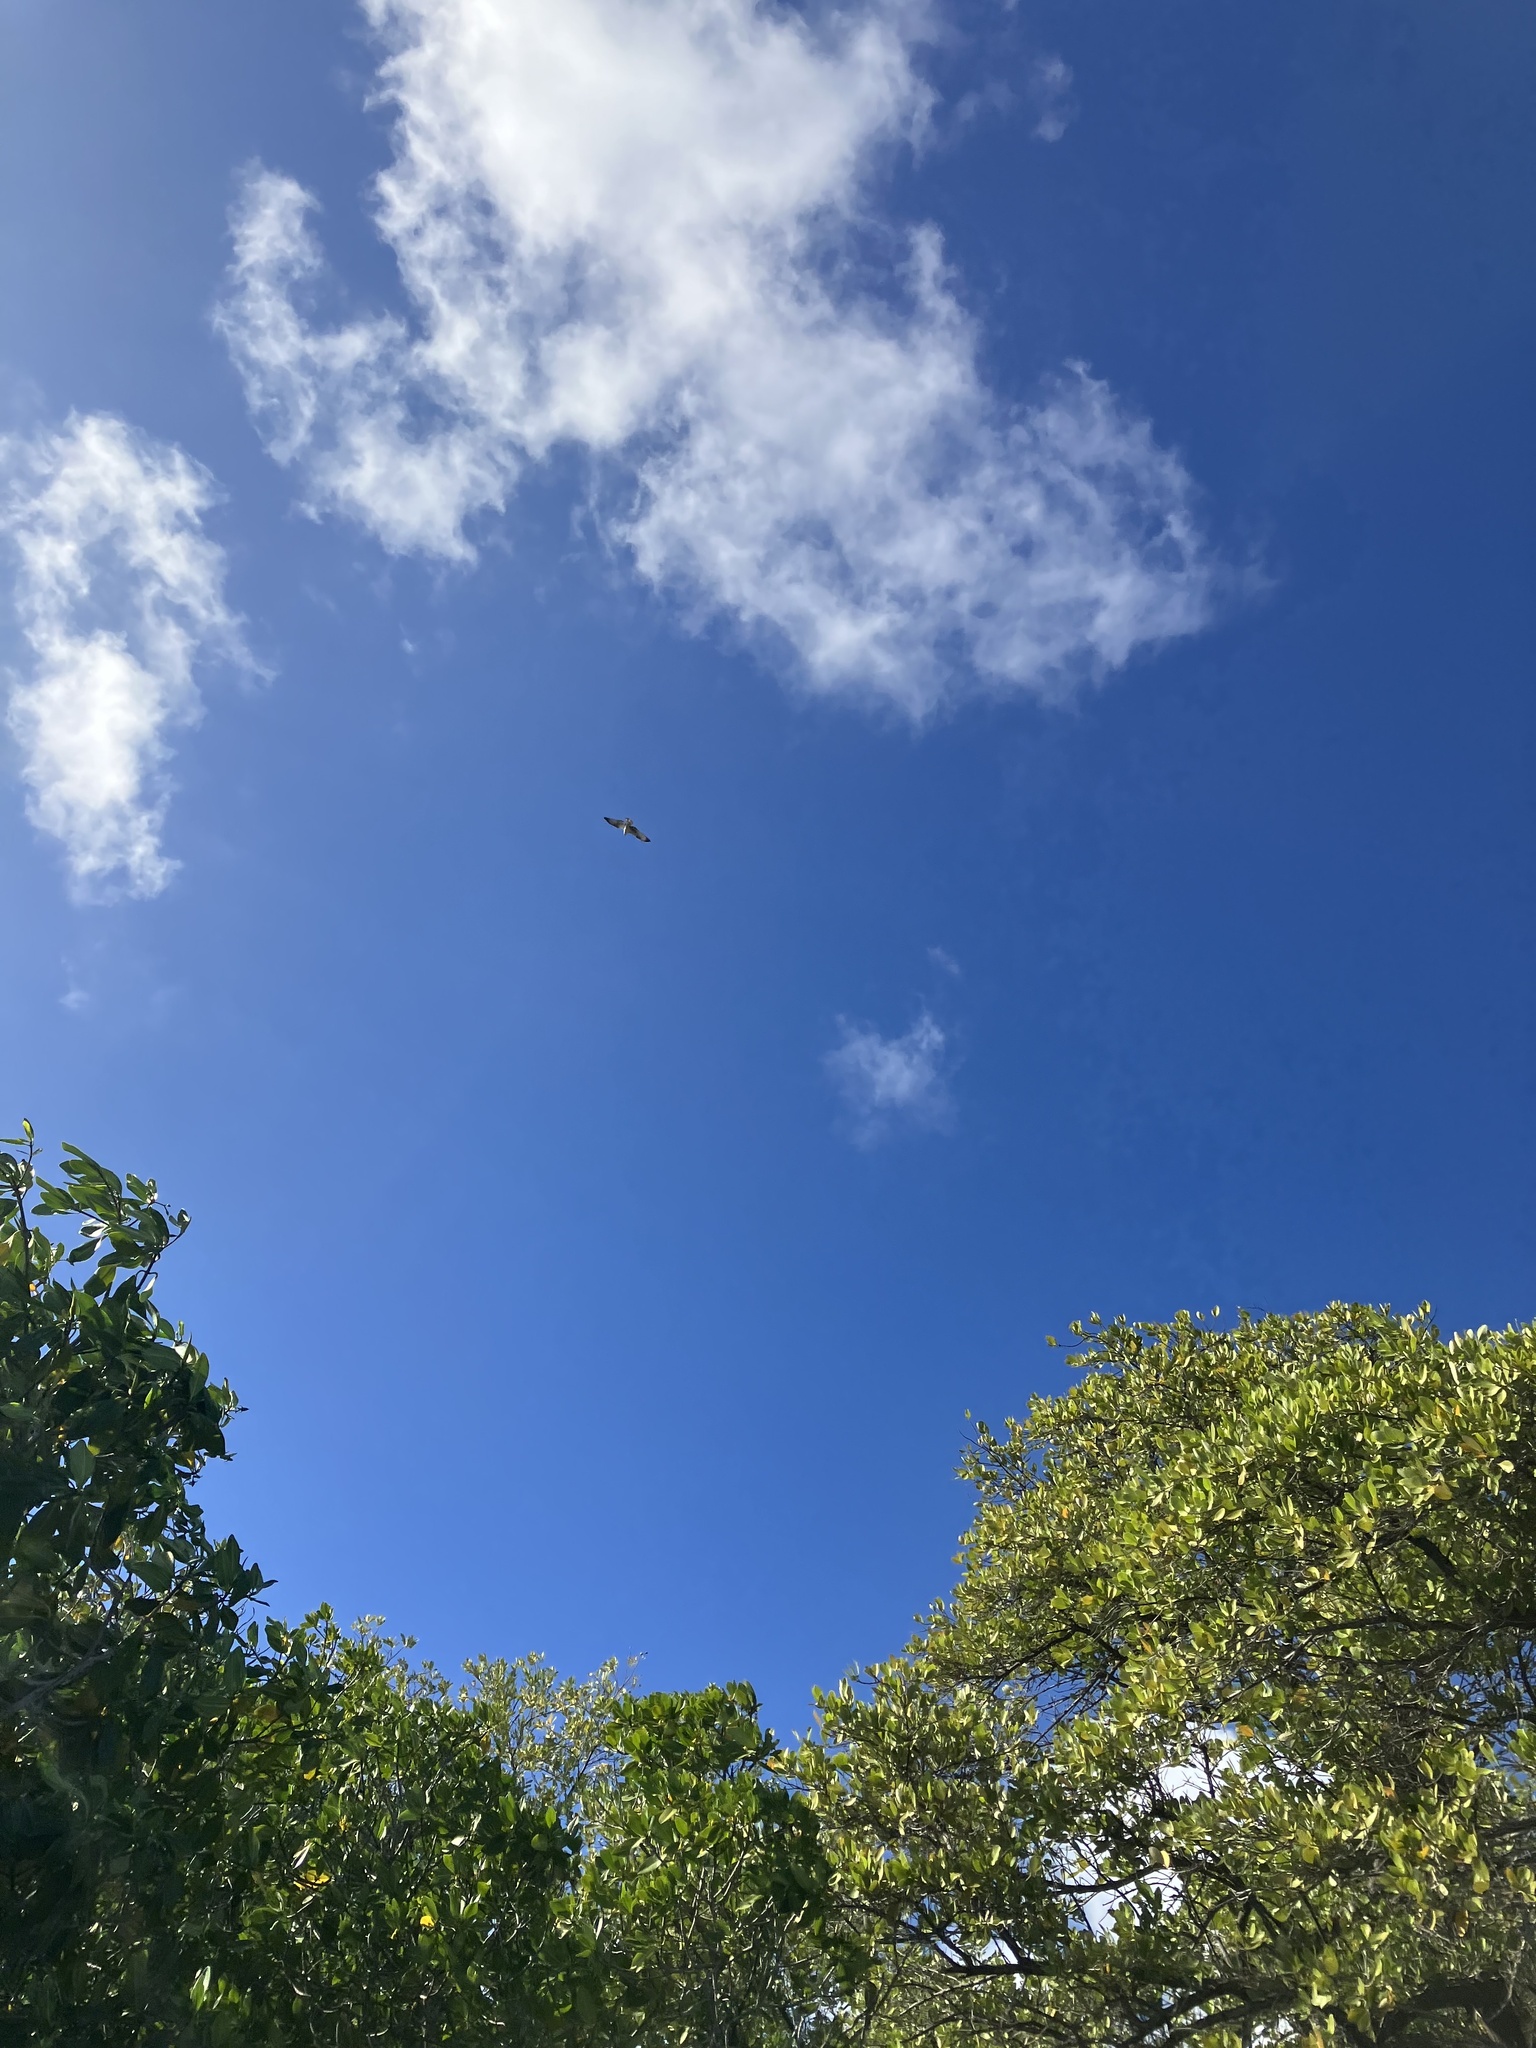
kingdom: Animalia
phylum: Chordata
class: Aves
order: Accipitriformes
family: Pandionidae
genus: Pandion
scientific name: Pandion haliaetus
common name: Osprey
